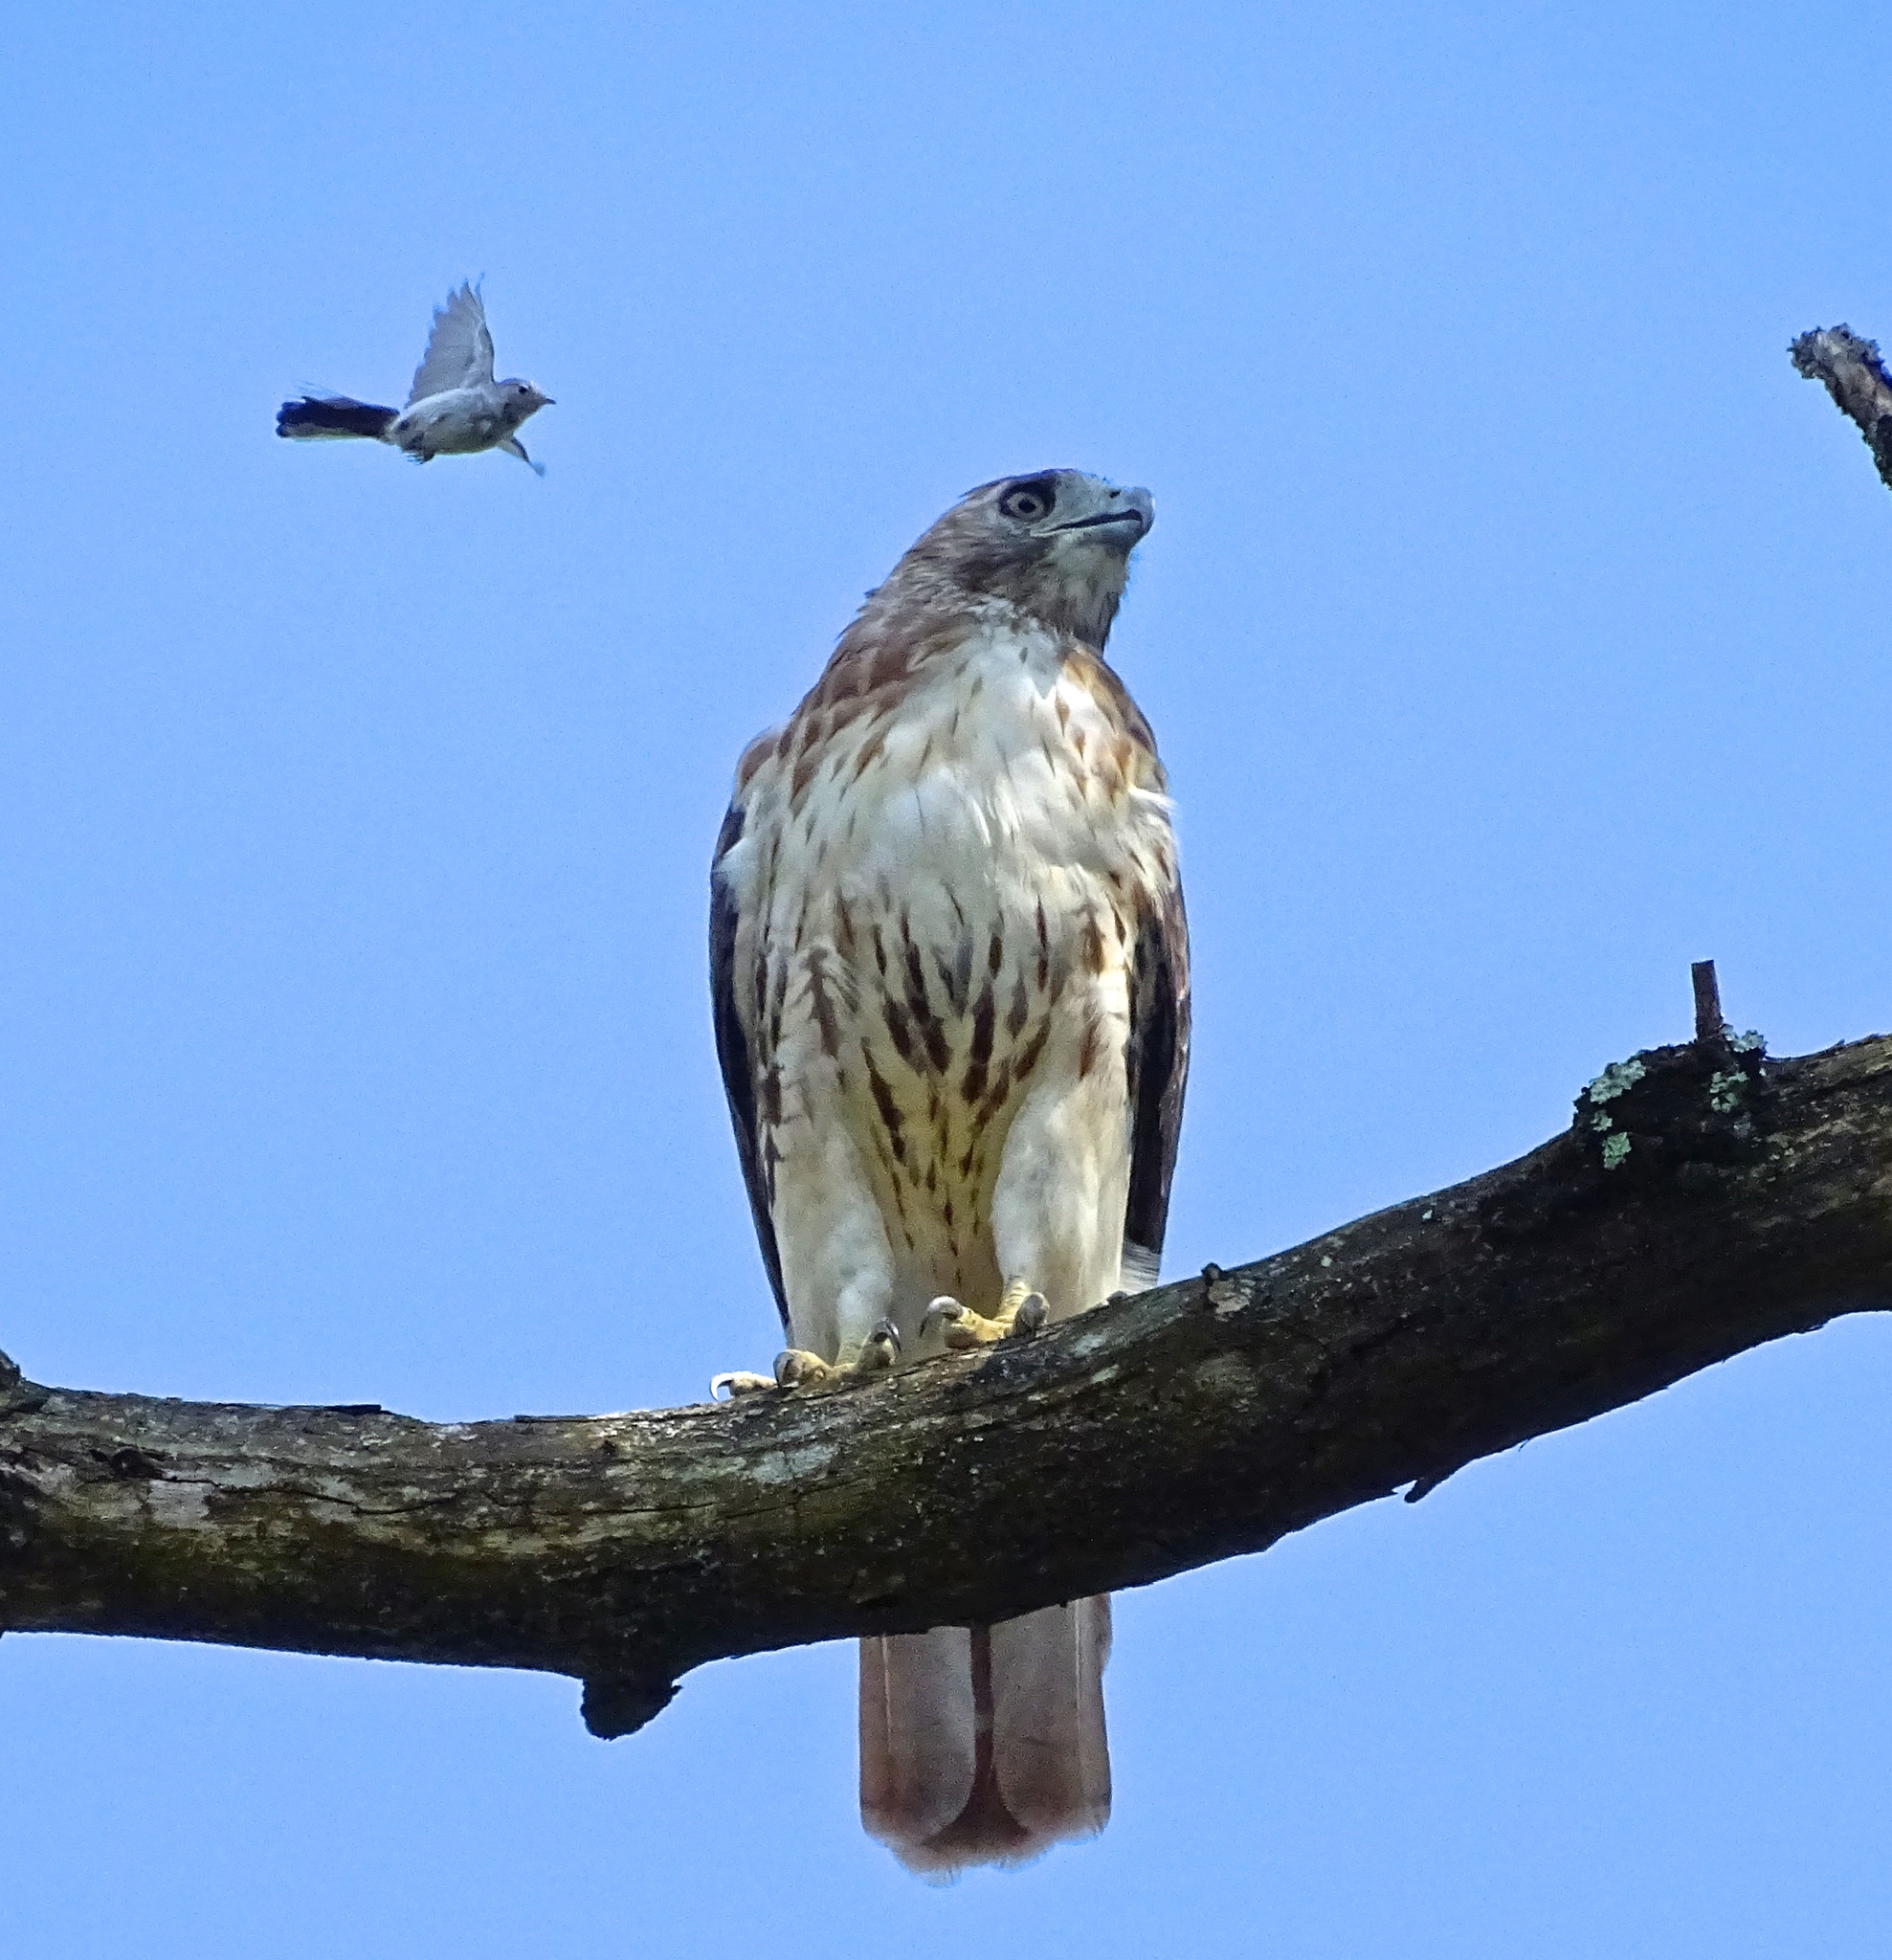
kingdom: Animalia
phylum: Chordata
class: Aves
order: Accipitriformes
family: Accipitridae
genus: Buteo
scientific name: Buteo jamaicensis
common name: Red-tailed hawk
